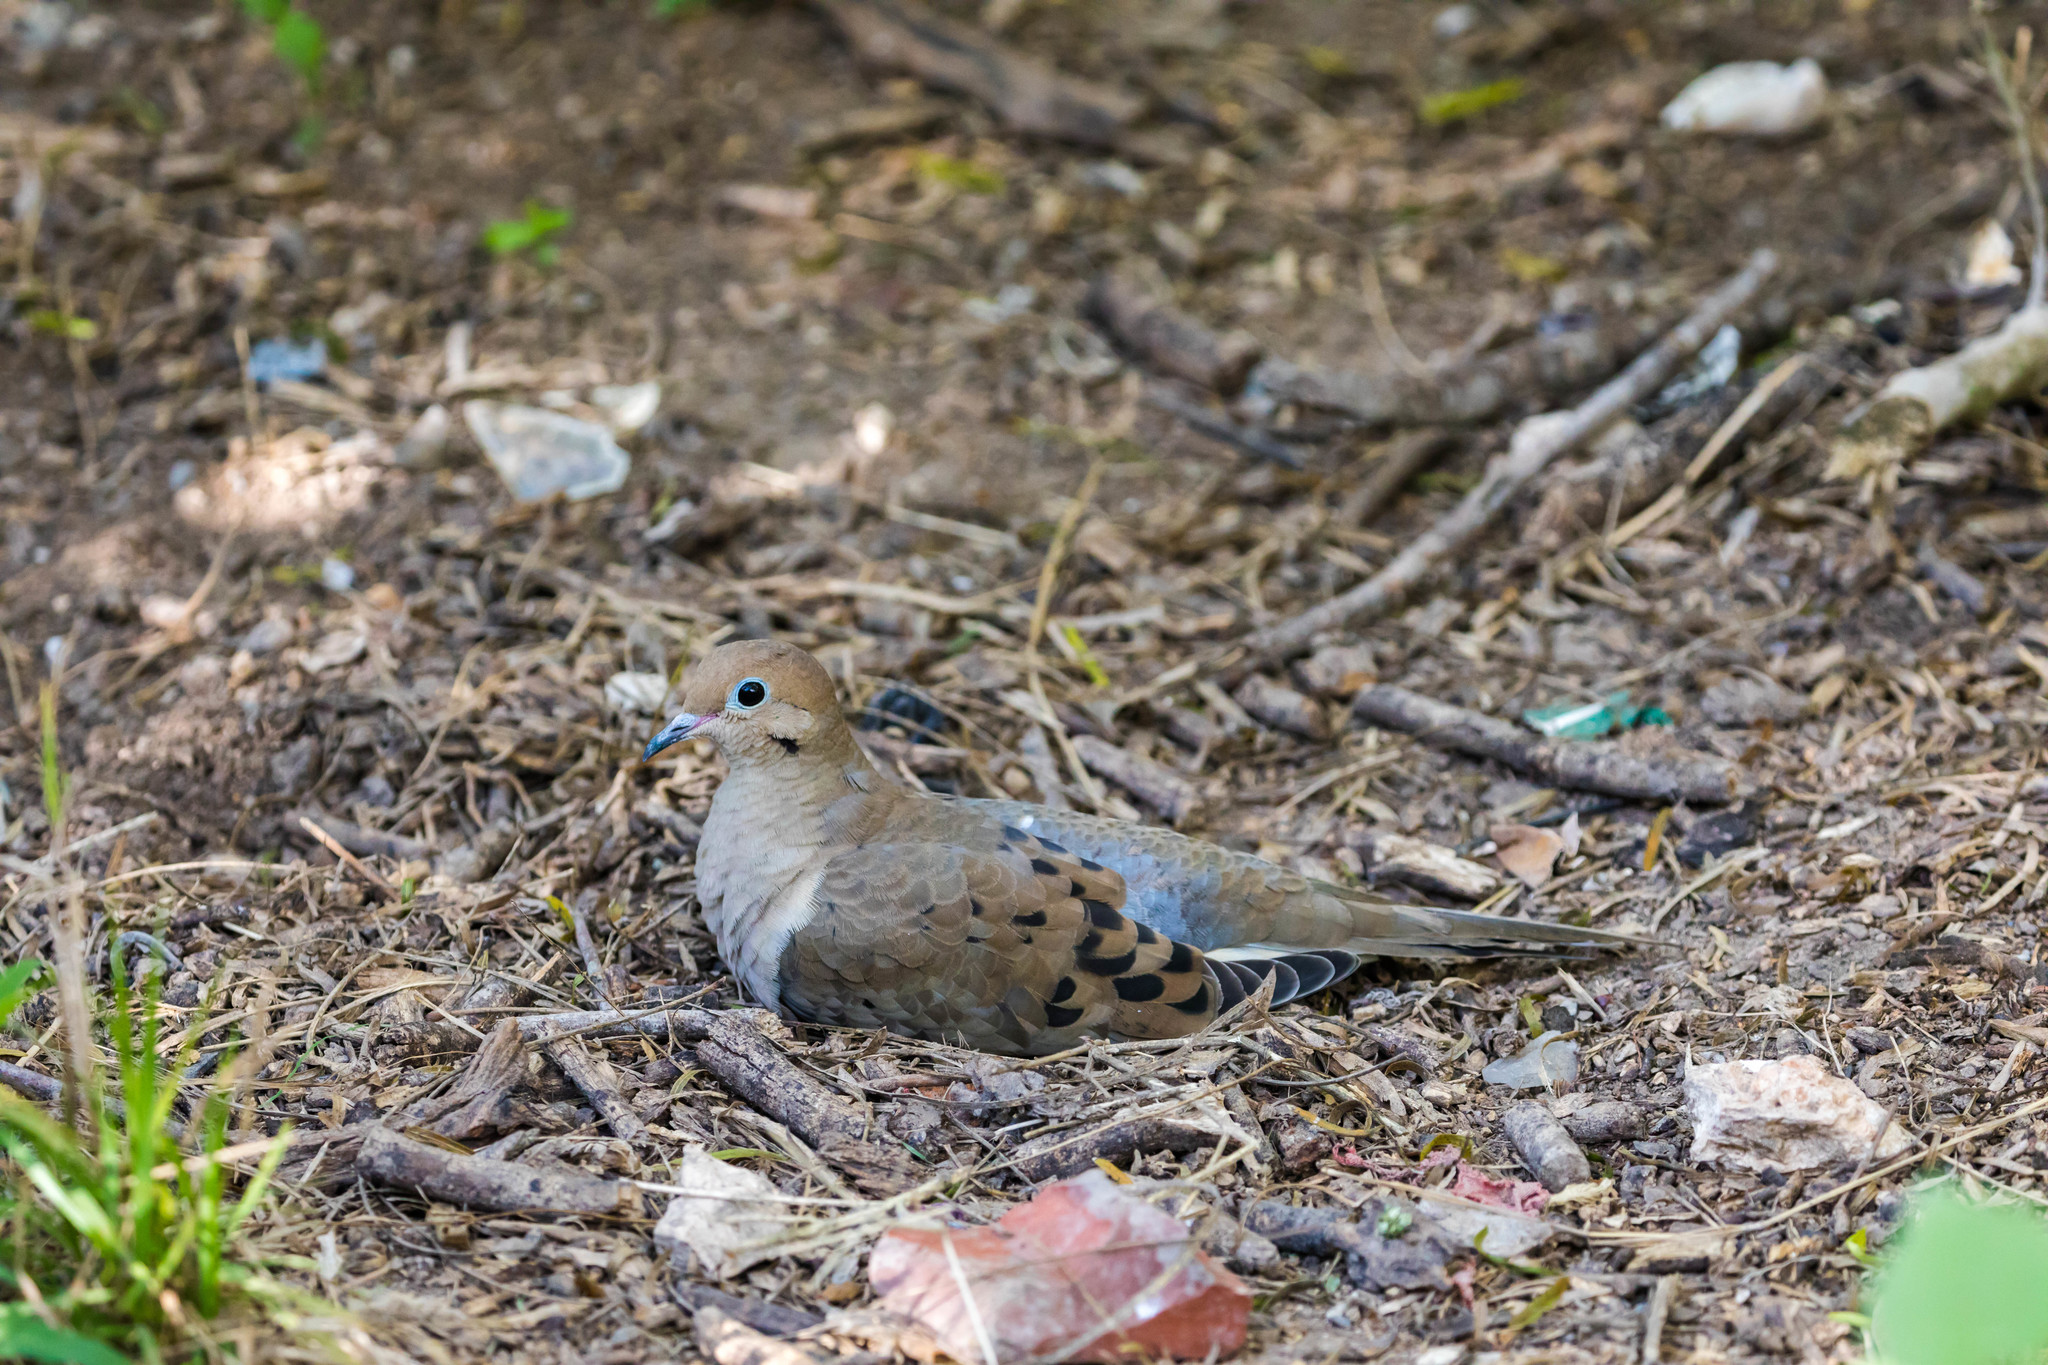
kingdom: Animalia
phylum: Chordata
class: Aves
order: Columbiformes
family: Columbidae
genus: Zenaida
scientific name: Zenaida macroura
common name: Mourning dove
